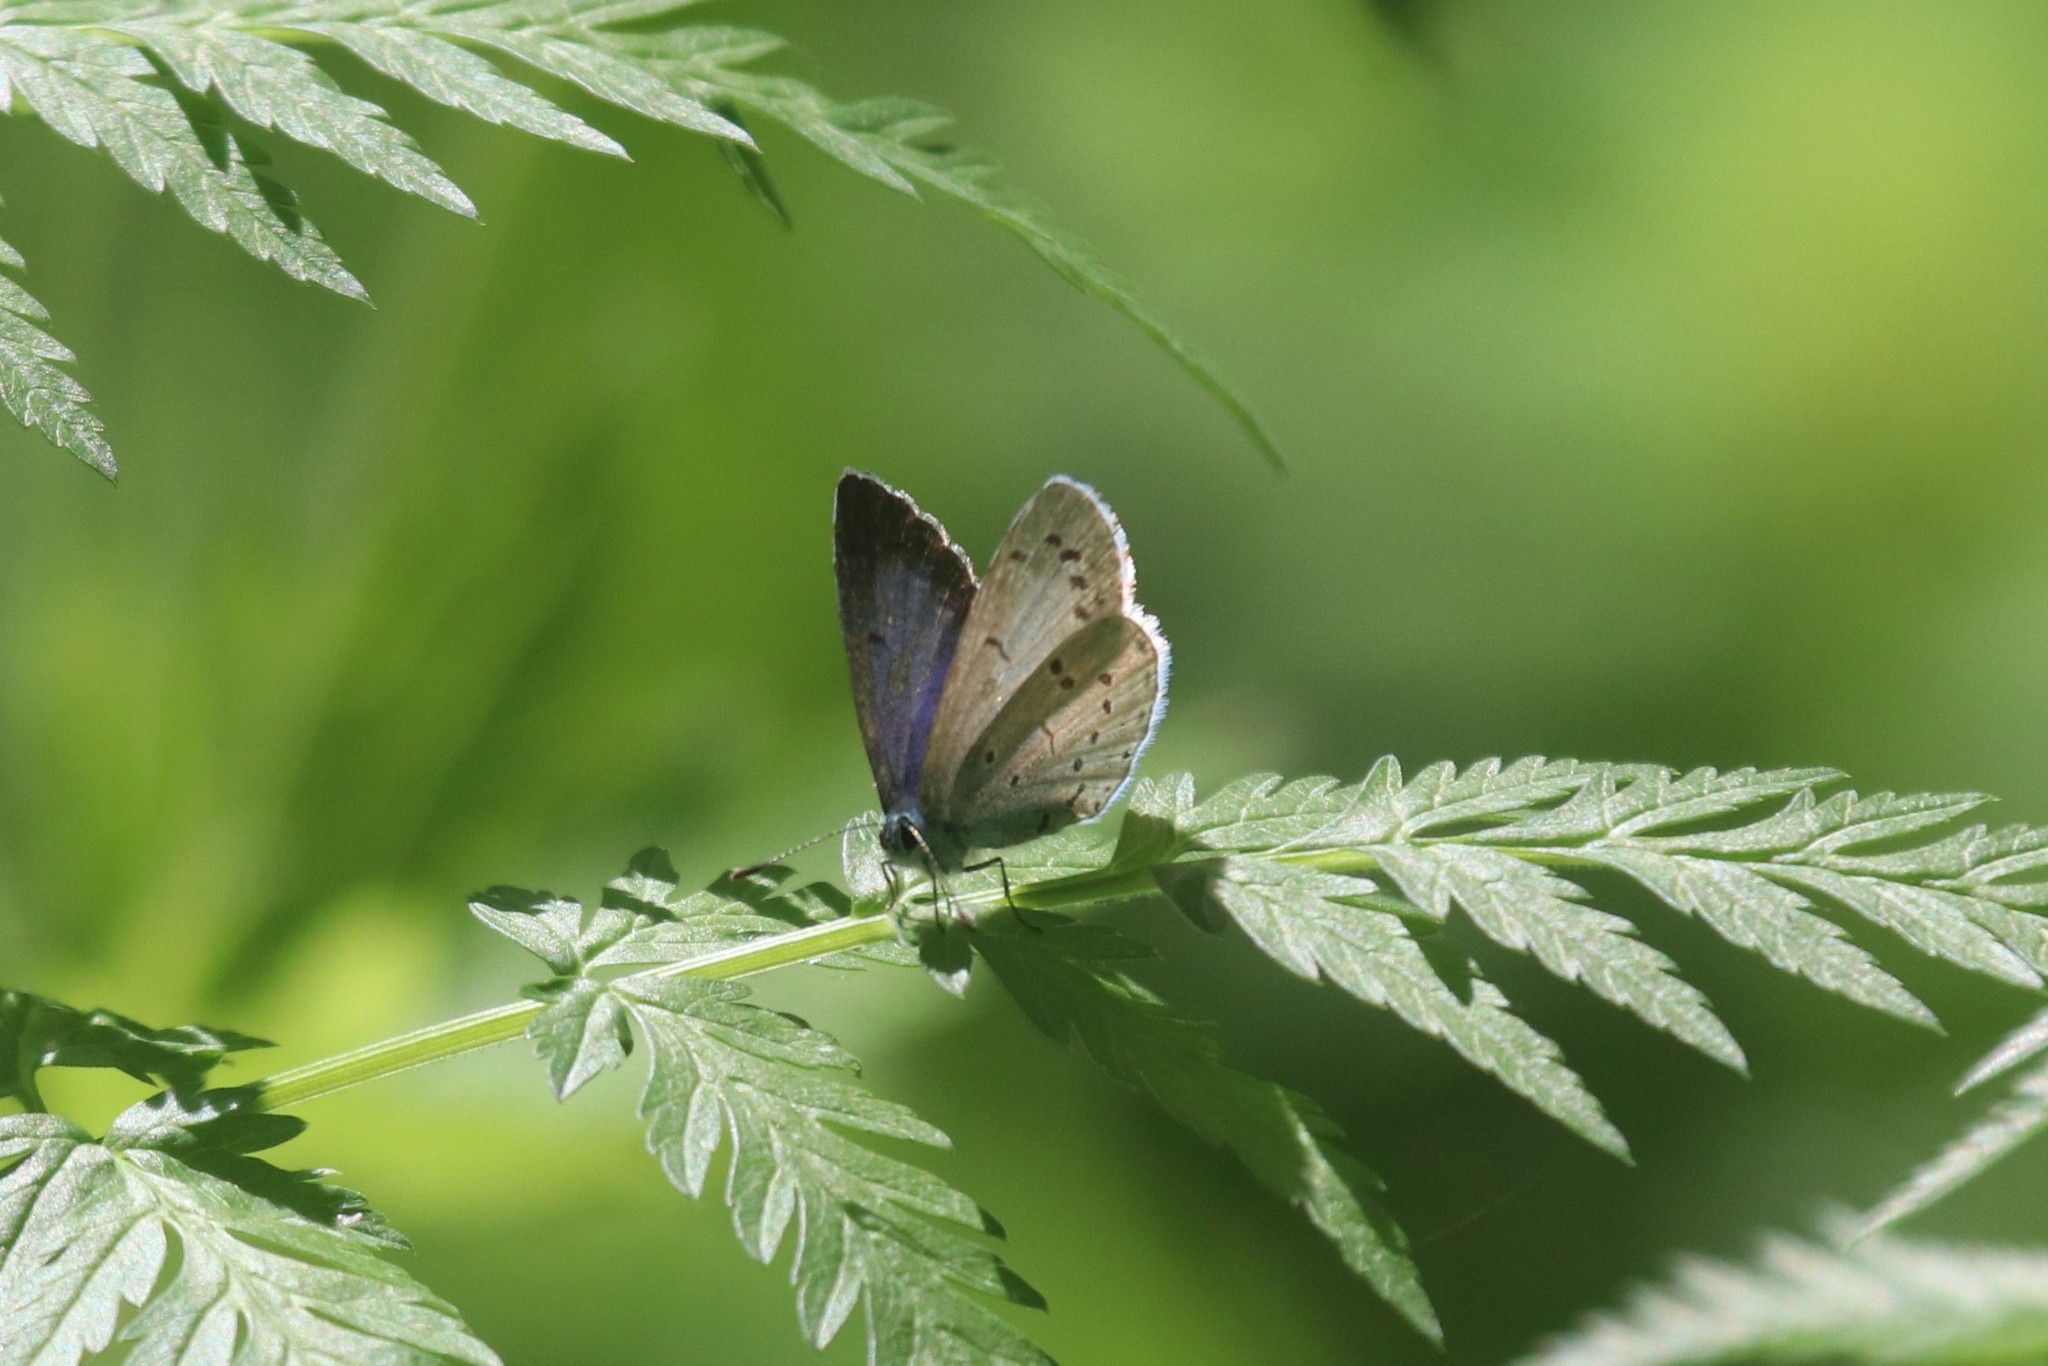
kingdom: Animalia
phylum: Arthropoda
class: Insecta
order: Lepidoptera
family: Lycaenidae
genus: Celastrina
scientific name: Celastrina argiolus
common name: Holly blue
